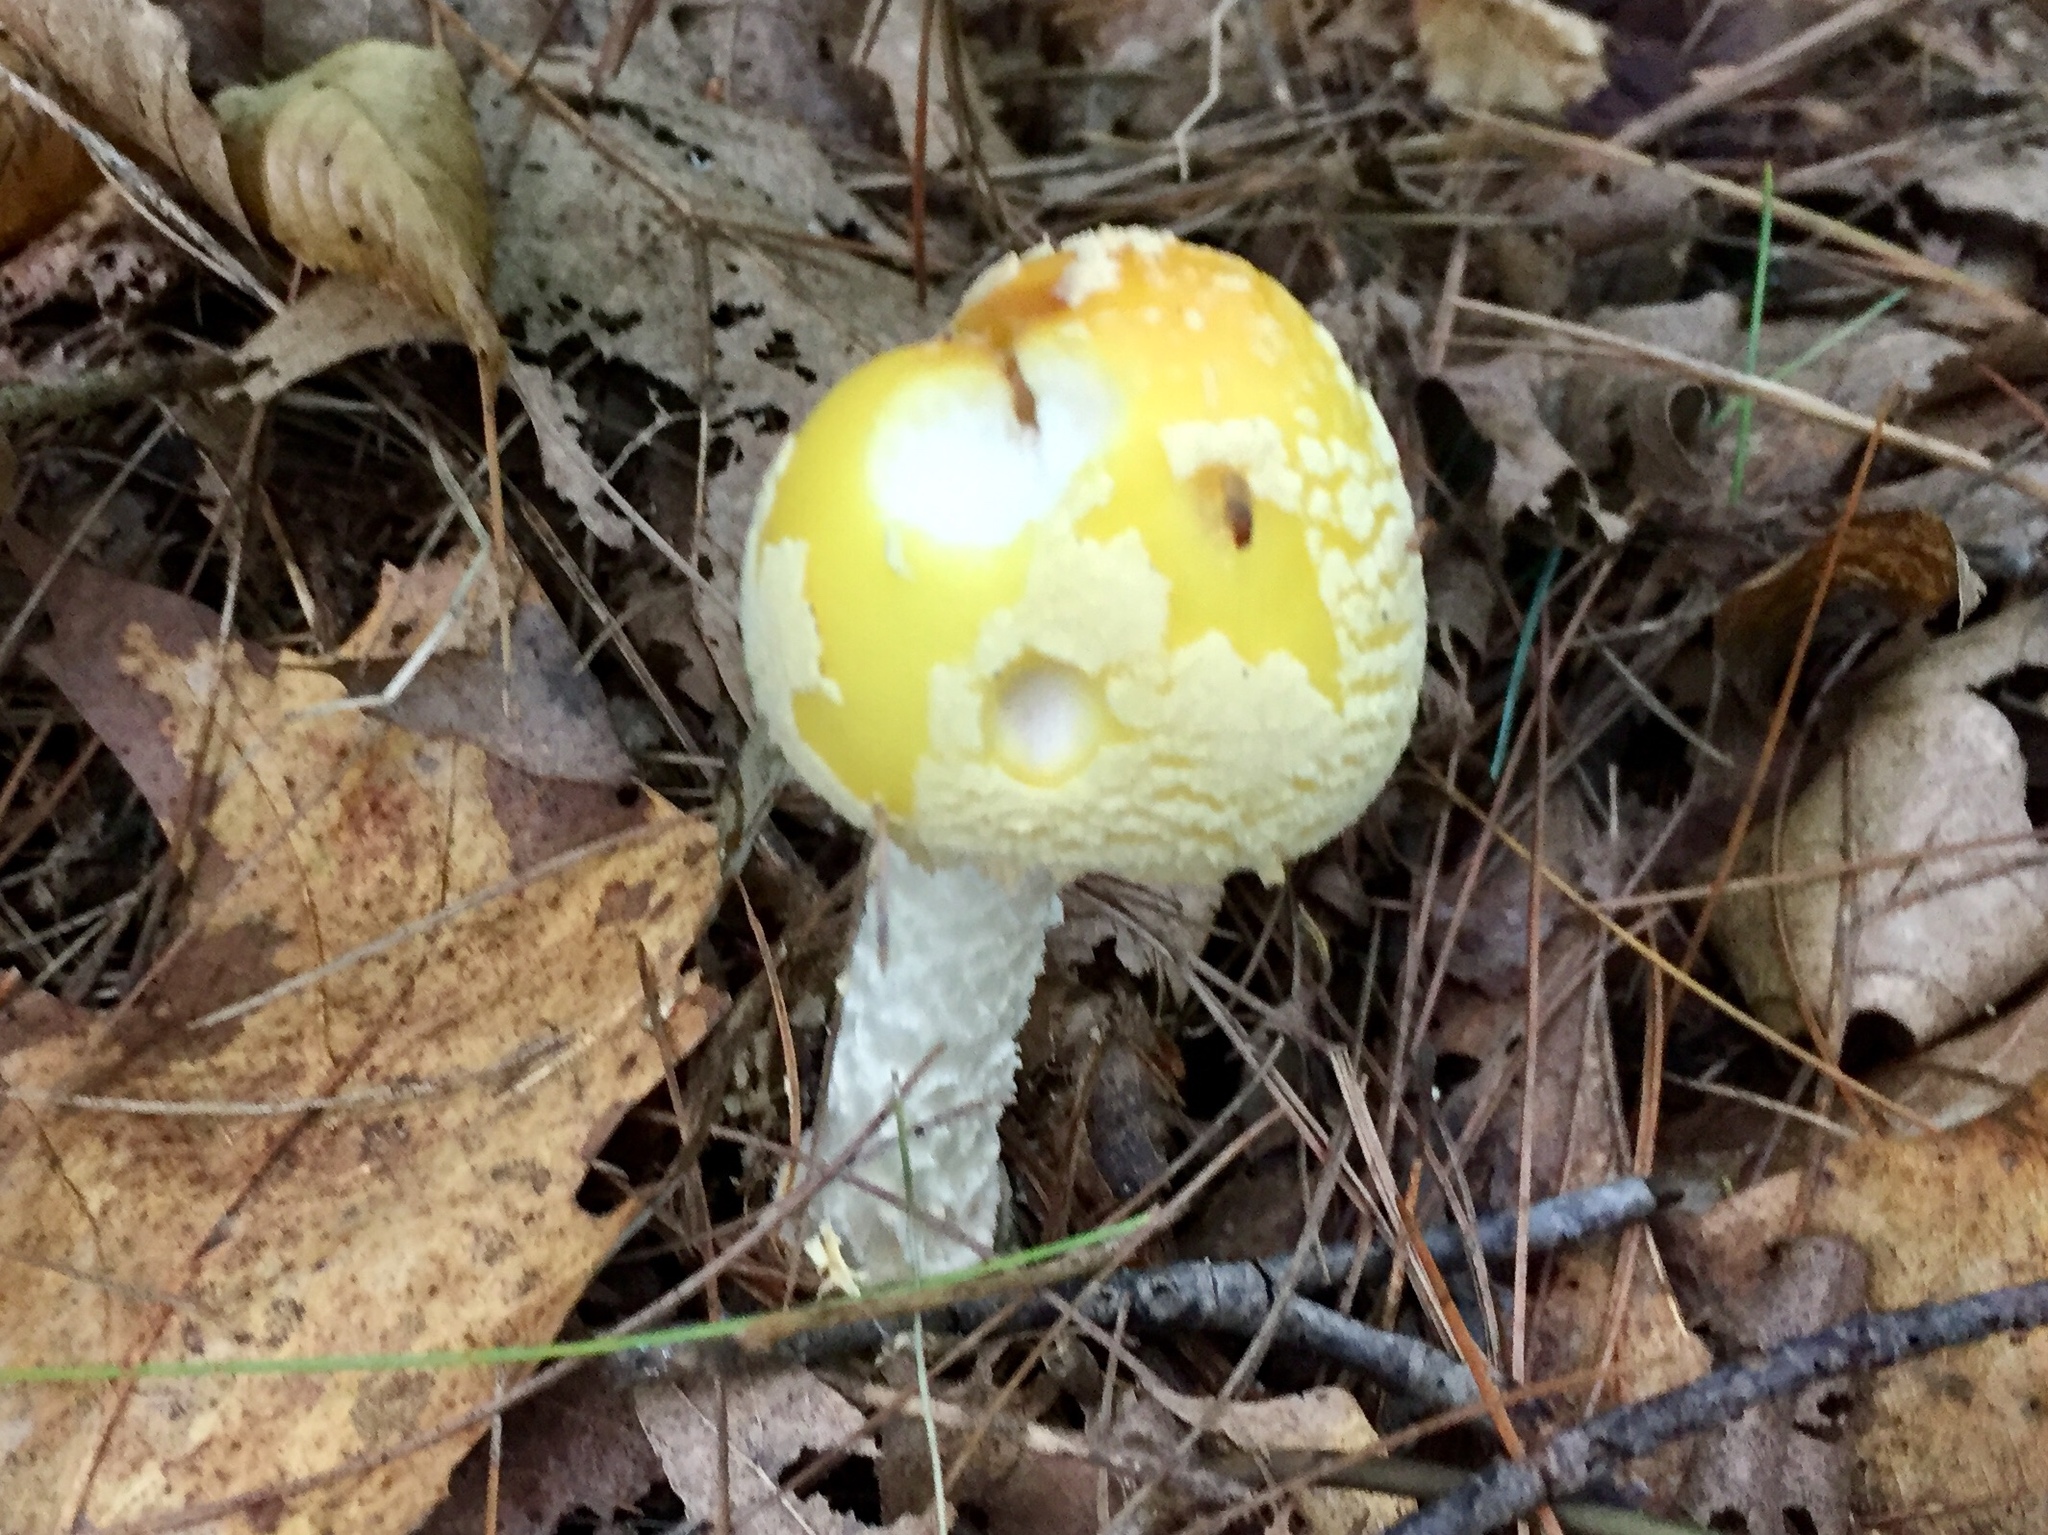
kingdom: Fungi
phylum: Basidiomycota
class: Agaricomycetes
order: Agaricales
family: Amanitaceae
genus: Amanita
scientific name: Amanita muscaria
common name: Fly agaric
